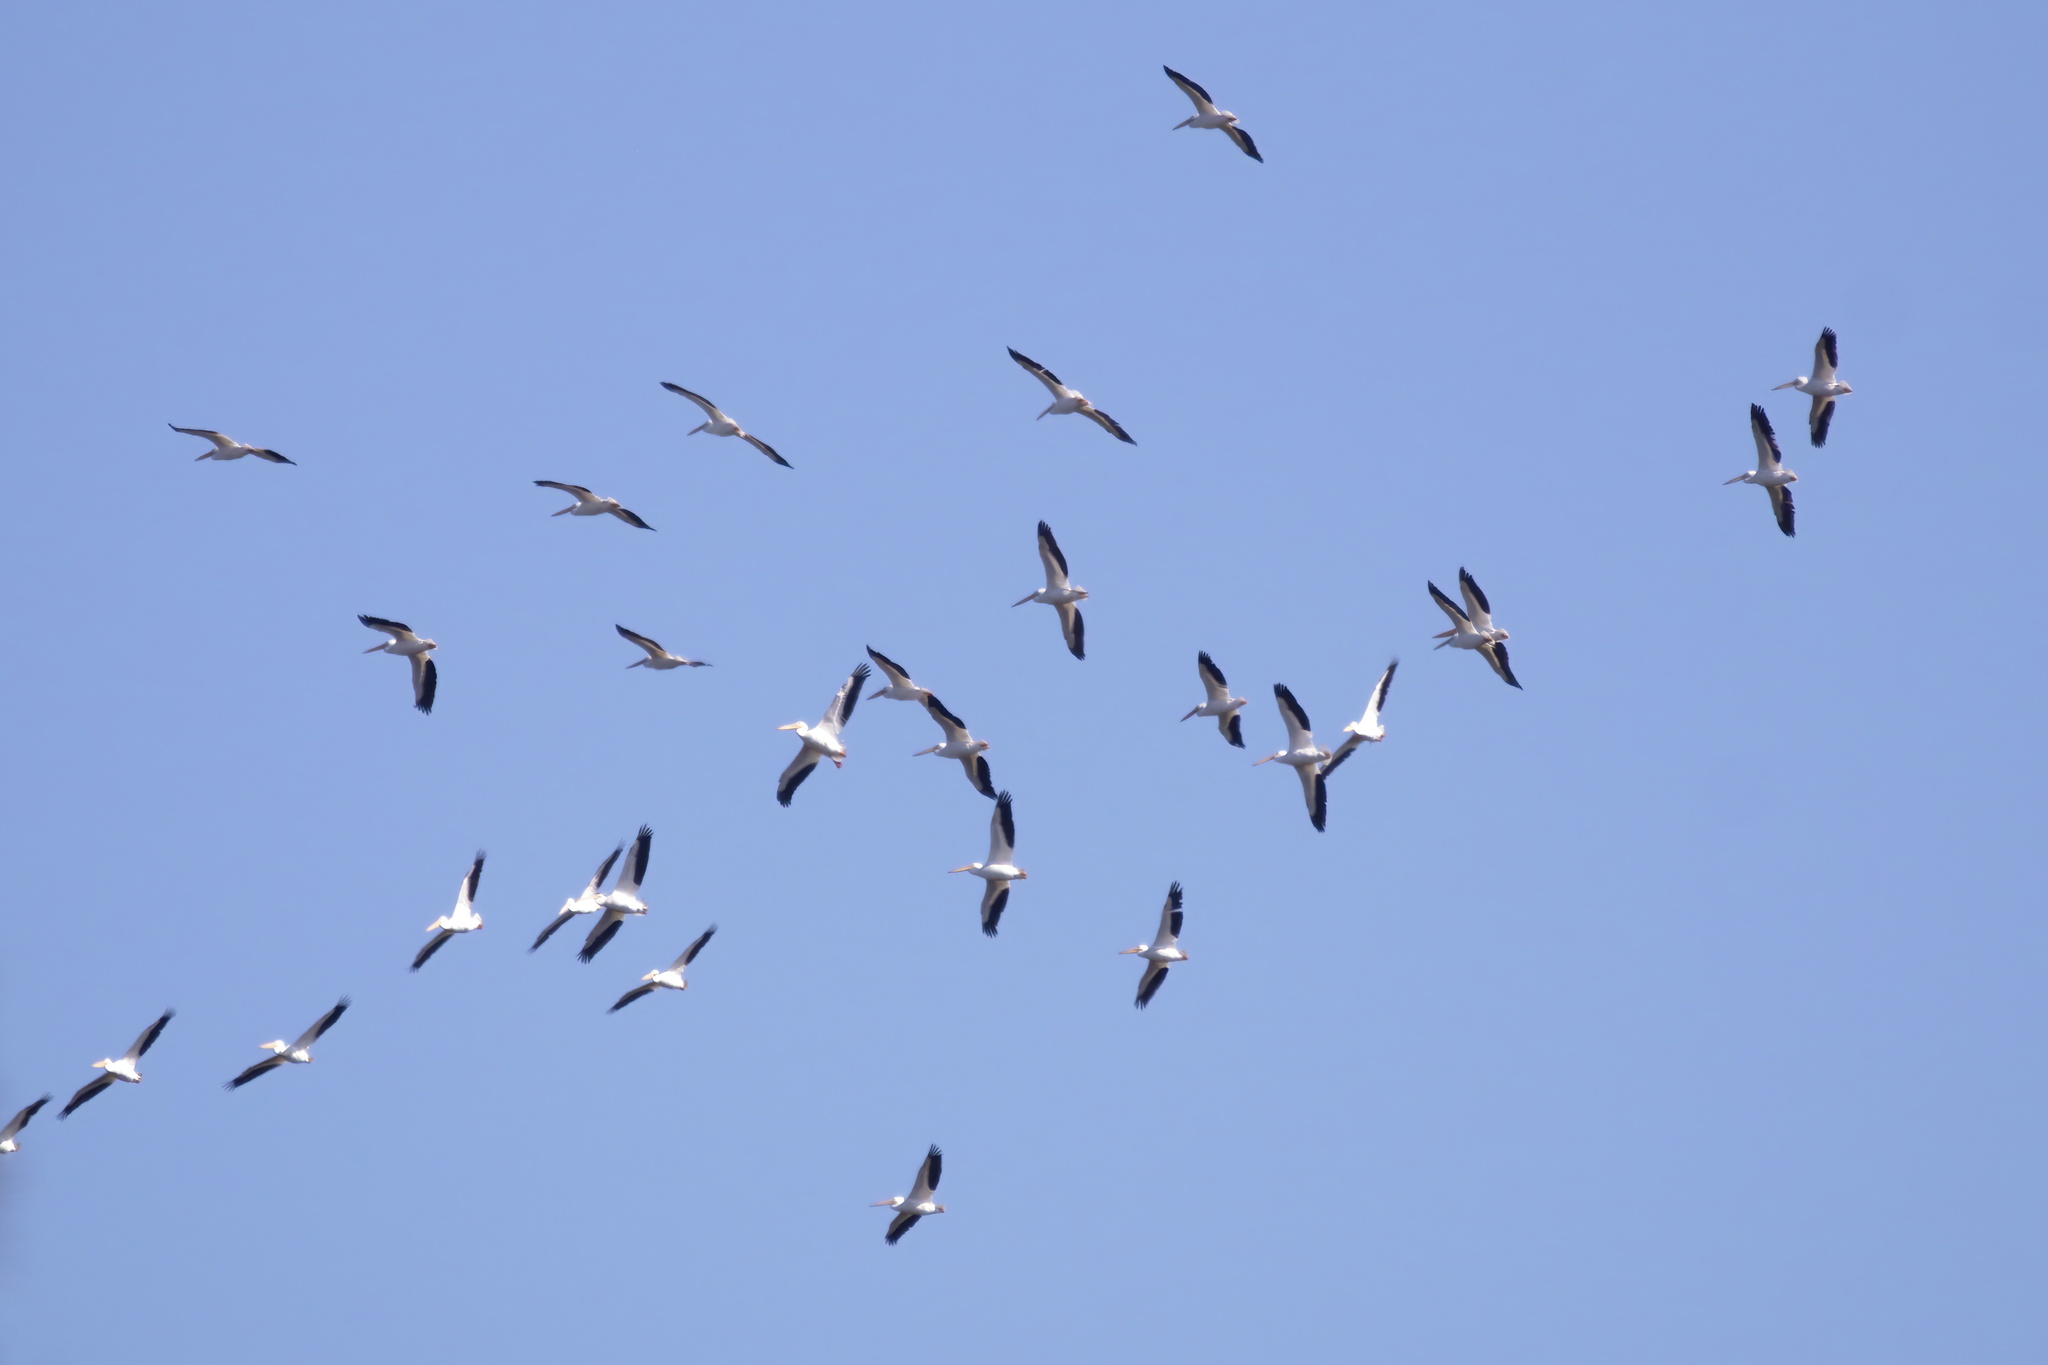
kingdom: Animalia
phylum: Chordata
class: Aves
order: Pelecaniformes
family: Pelecanidae
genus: Pelecanus
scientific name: Pelecanus erythrorhynchos
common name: American white pelican
